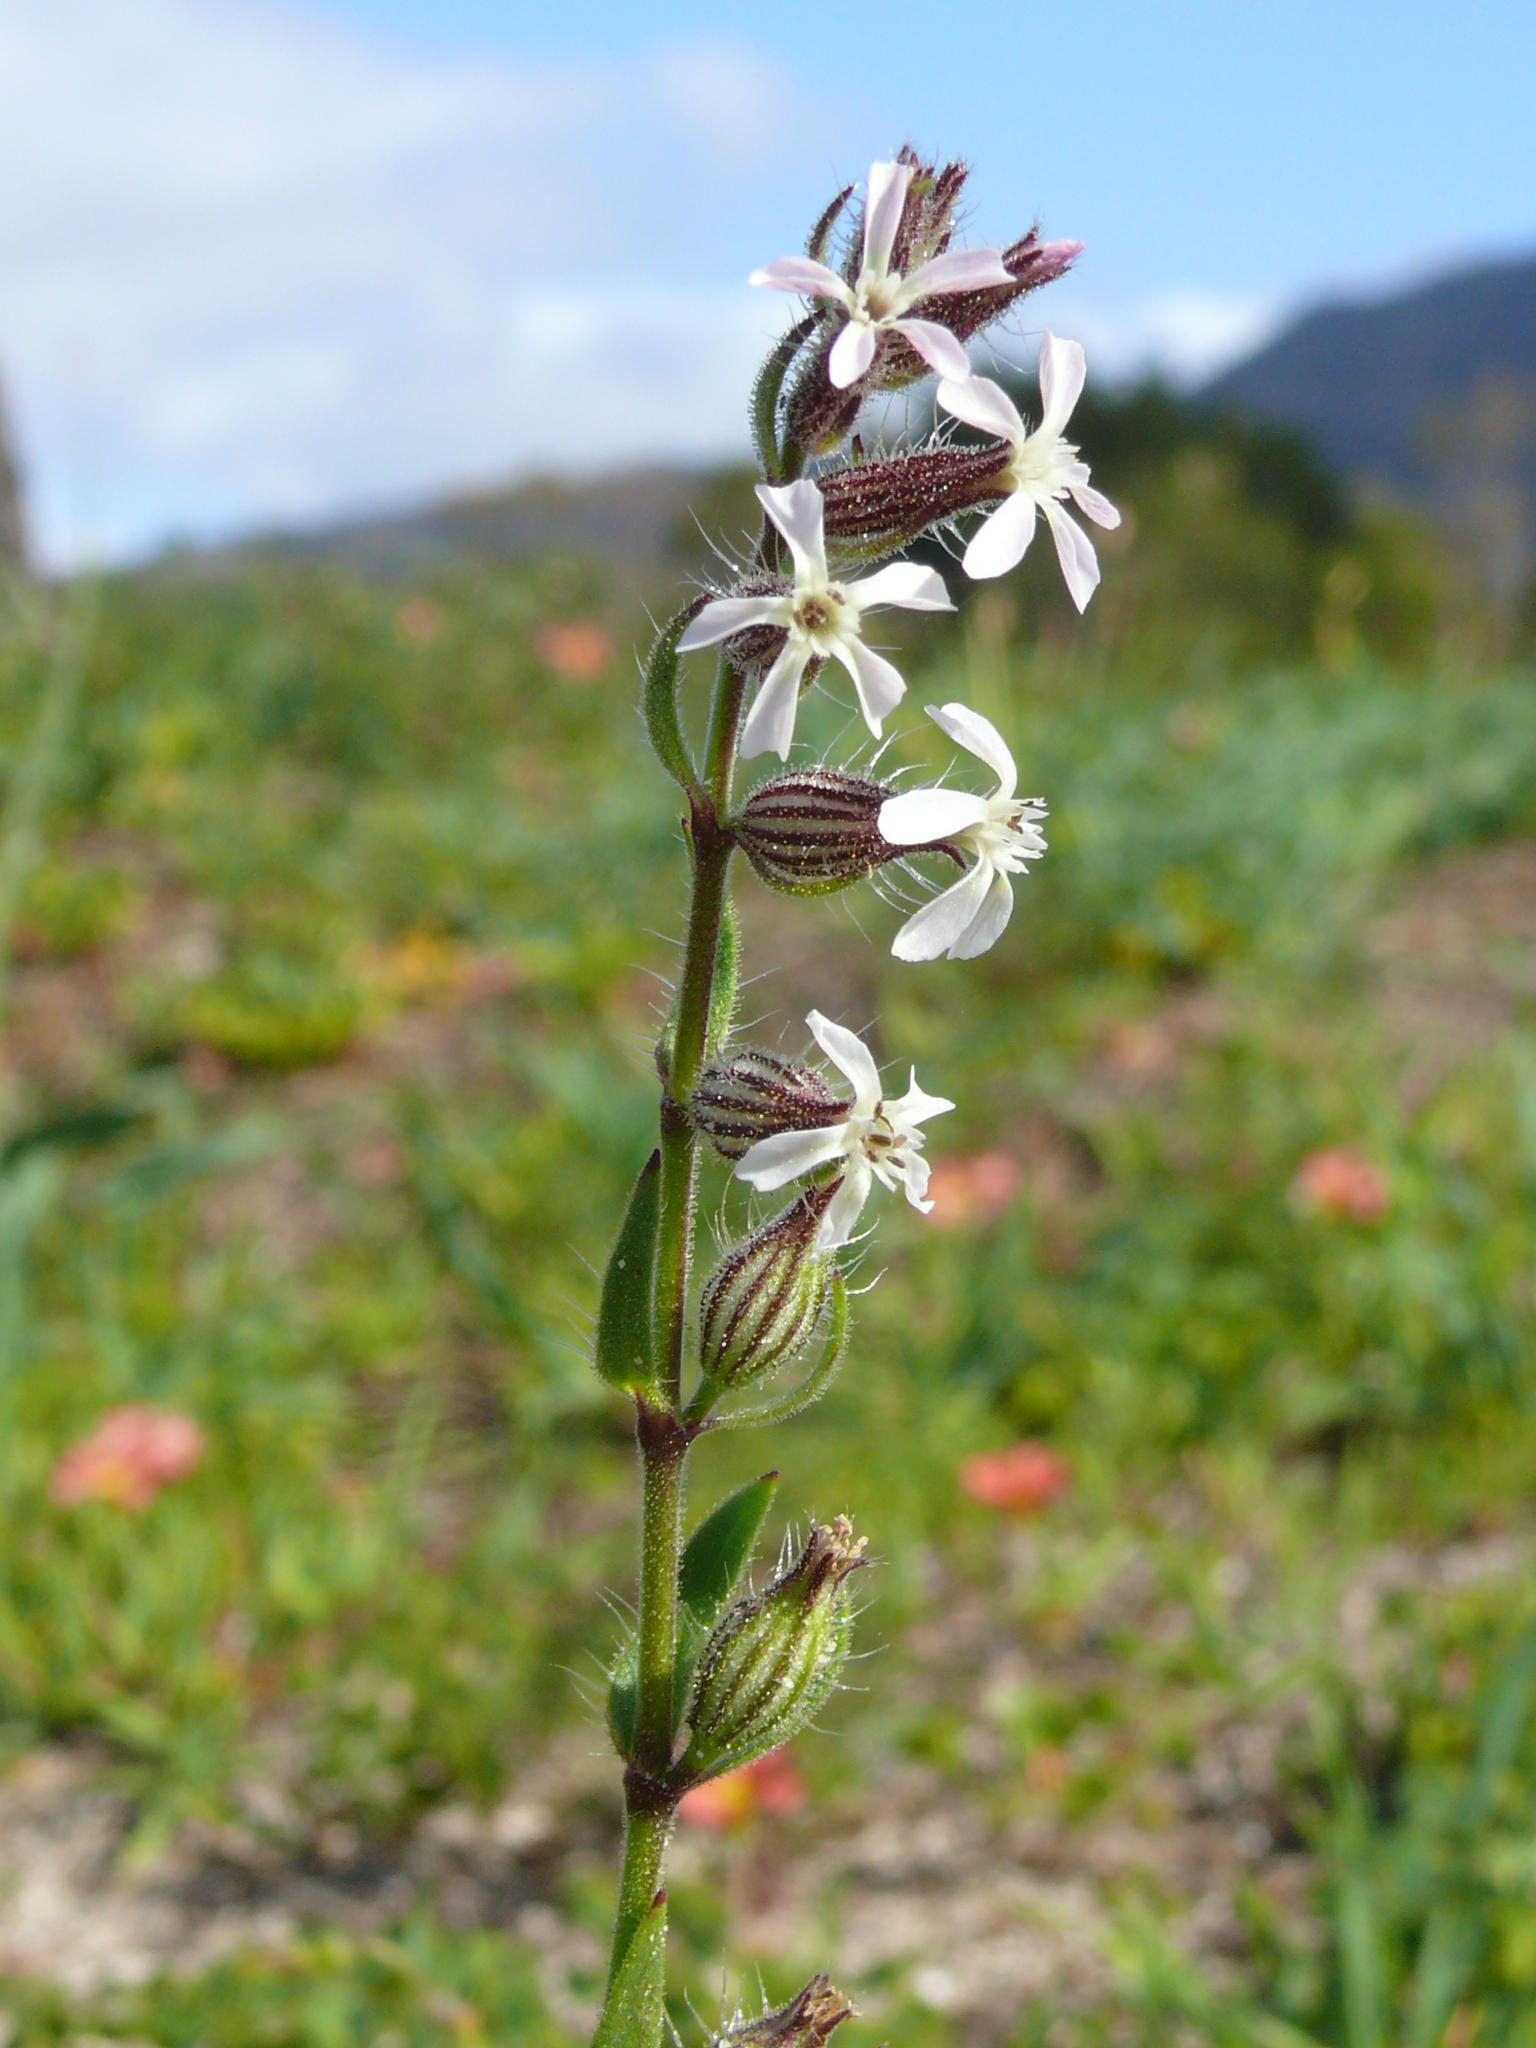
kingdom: Plantae
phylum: Tracheophyta
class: Magnoliopsida
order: Caryophyllales
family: Caryophyllaceae
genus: Silene
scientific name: Silene gallica
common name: Small-flowered catchfly
